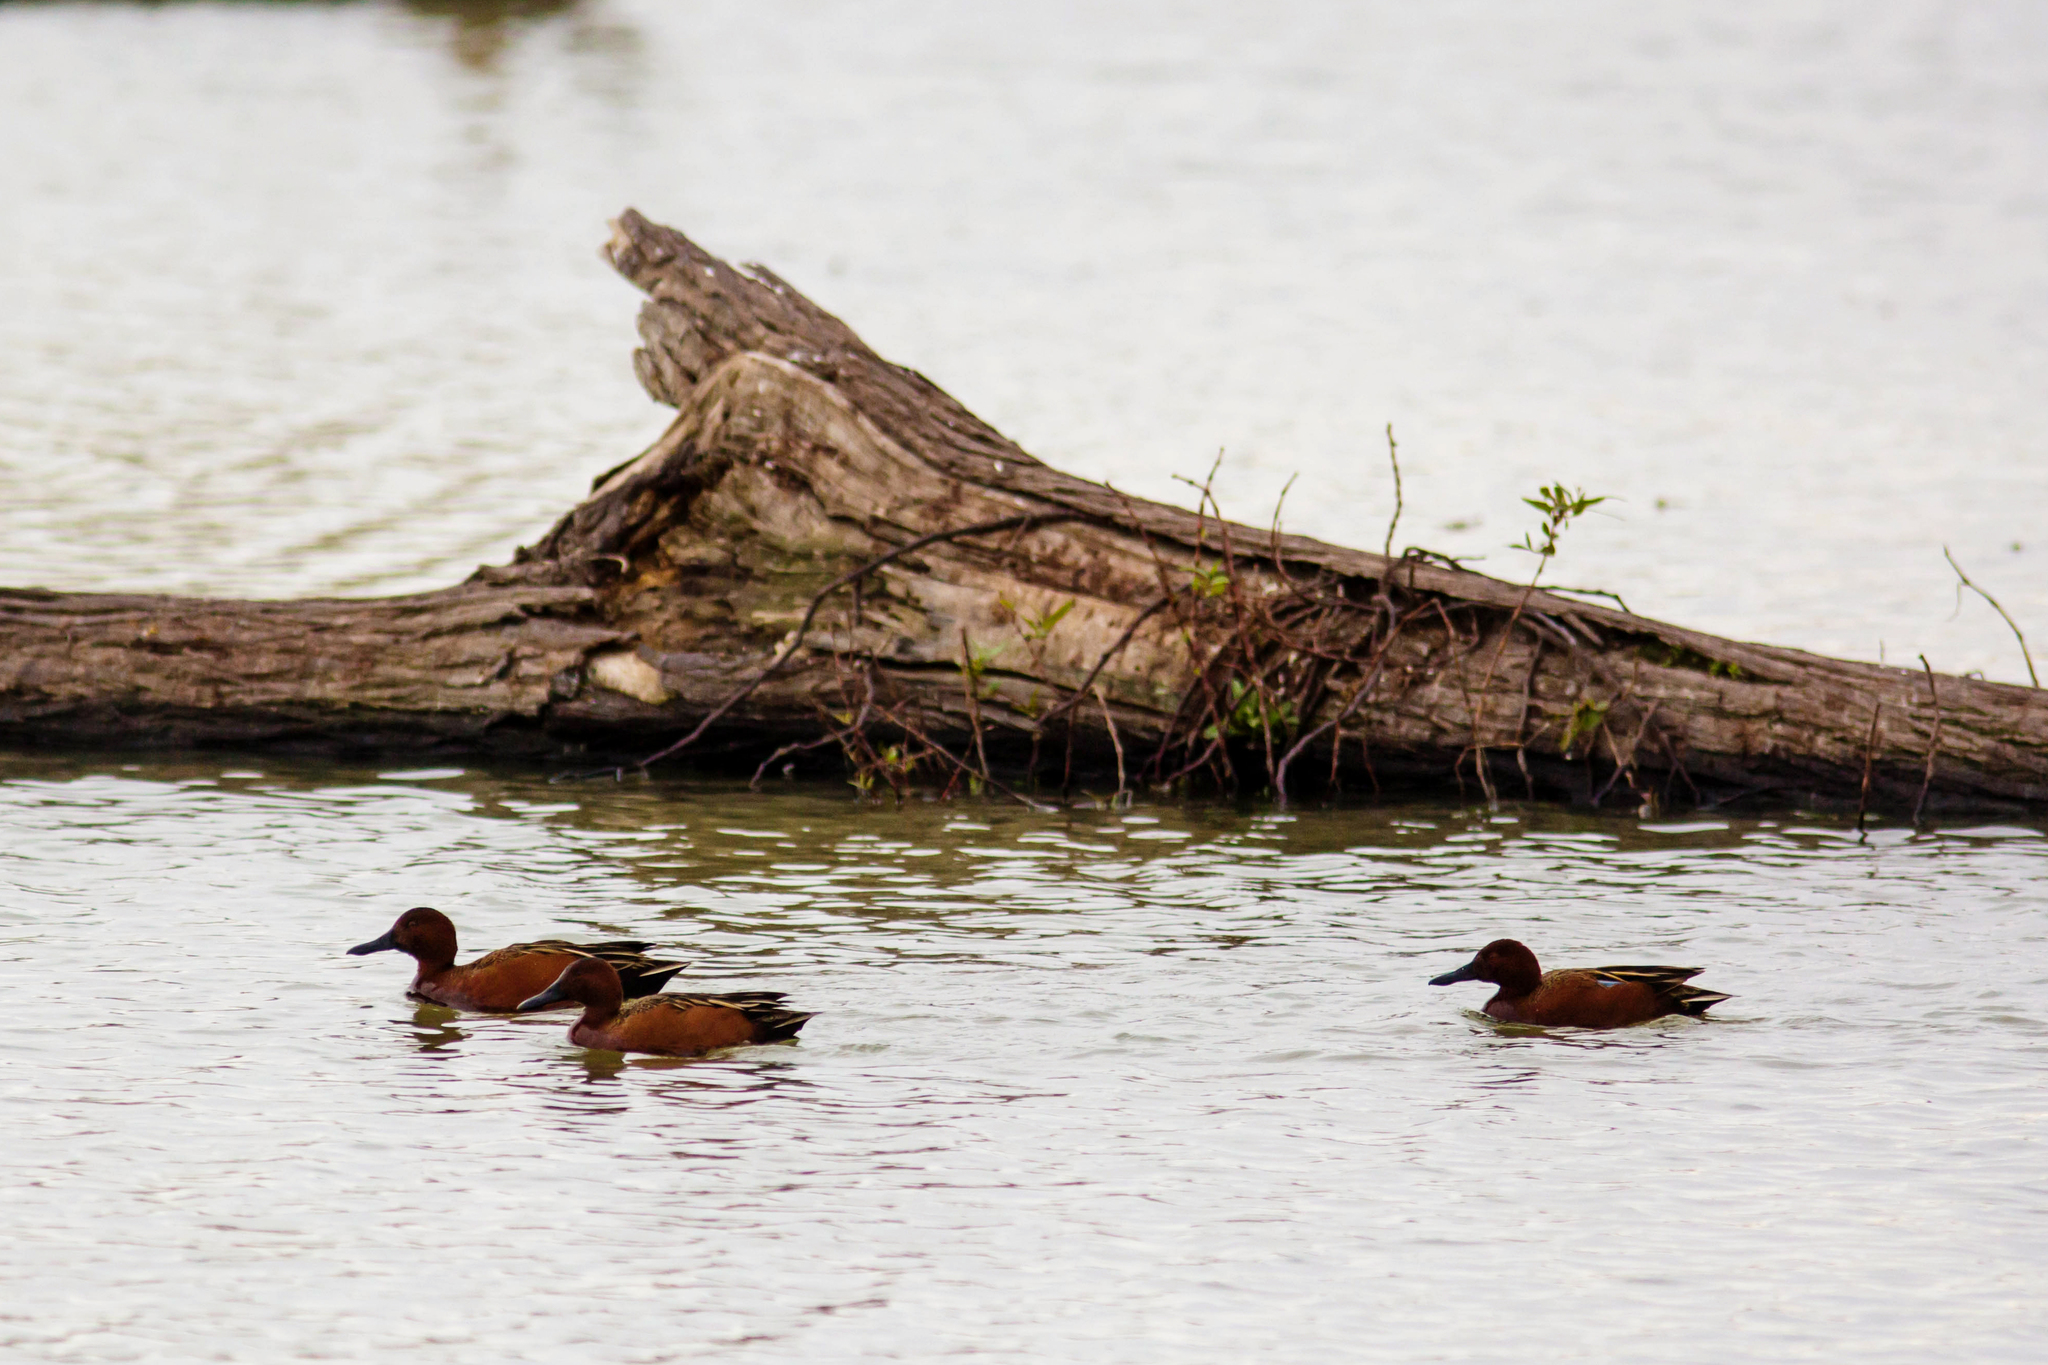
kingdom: Animalia
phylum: Chordata
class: Aves
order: Anseriformes
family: Anatidae
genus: Spatula
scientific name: Spatula cyanoptera
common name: Cinnamon teal
